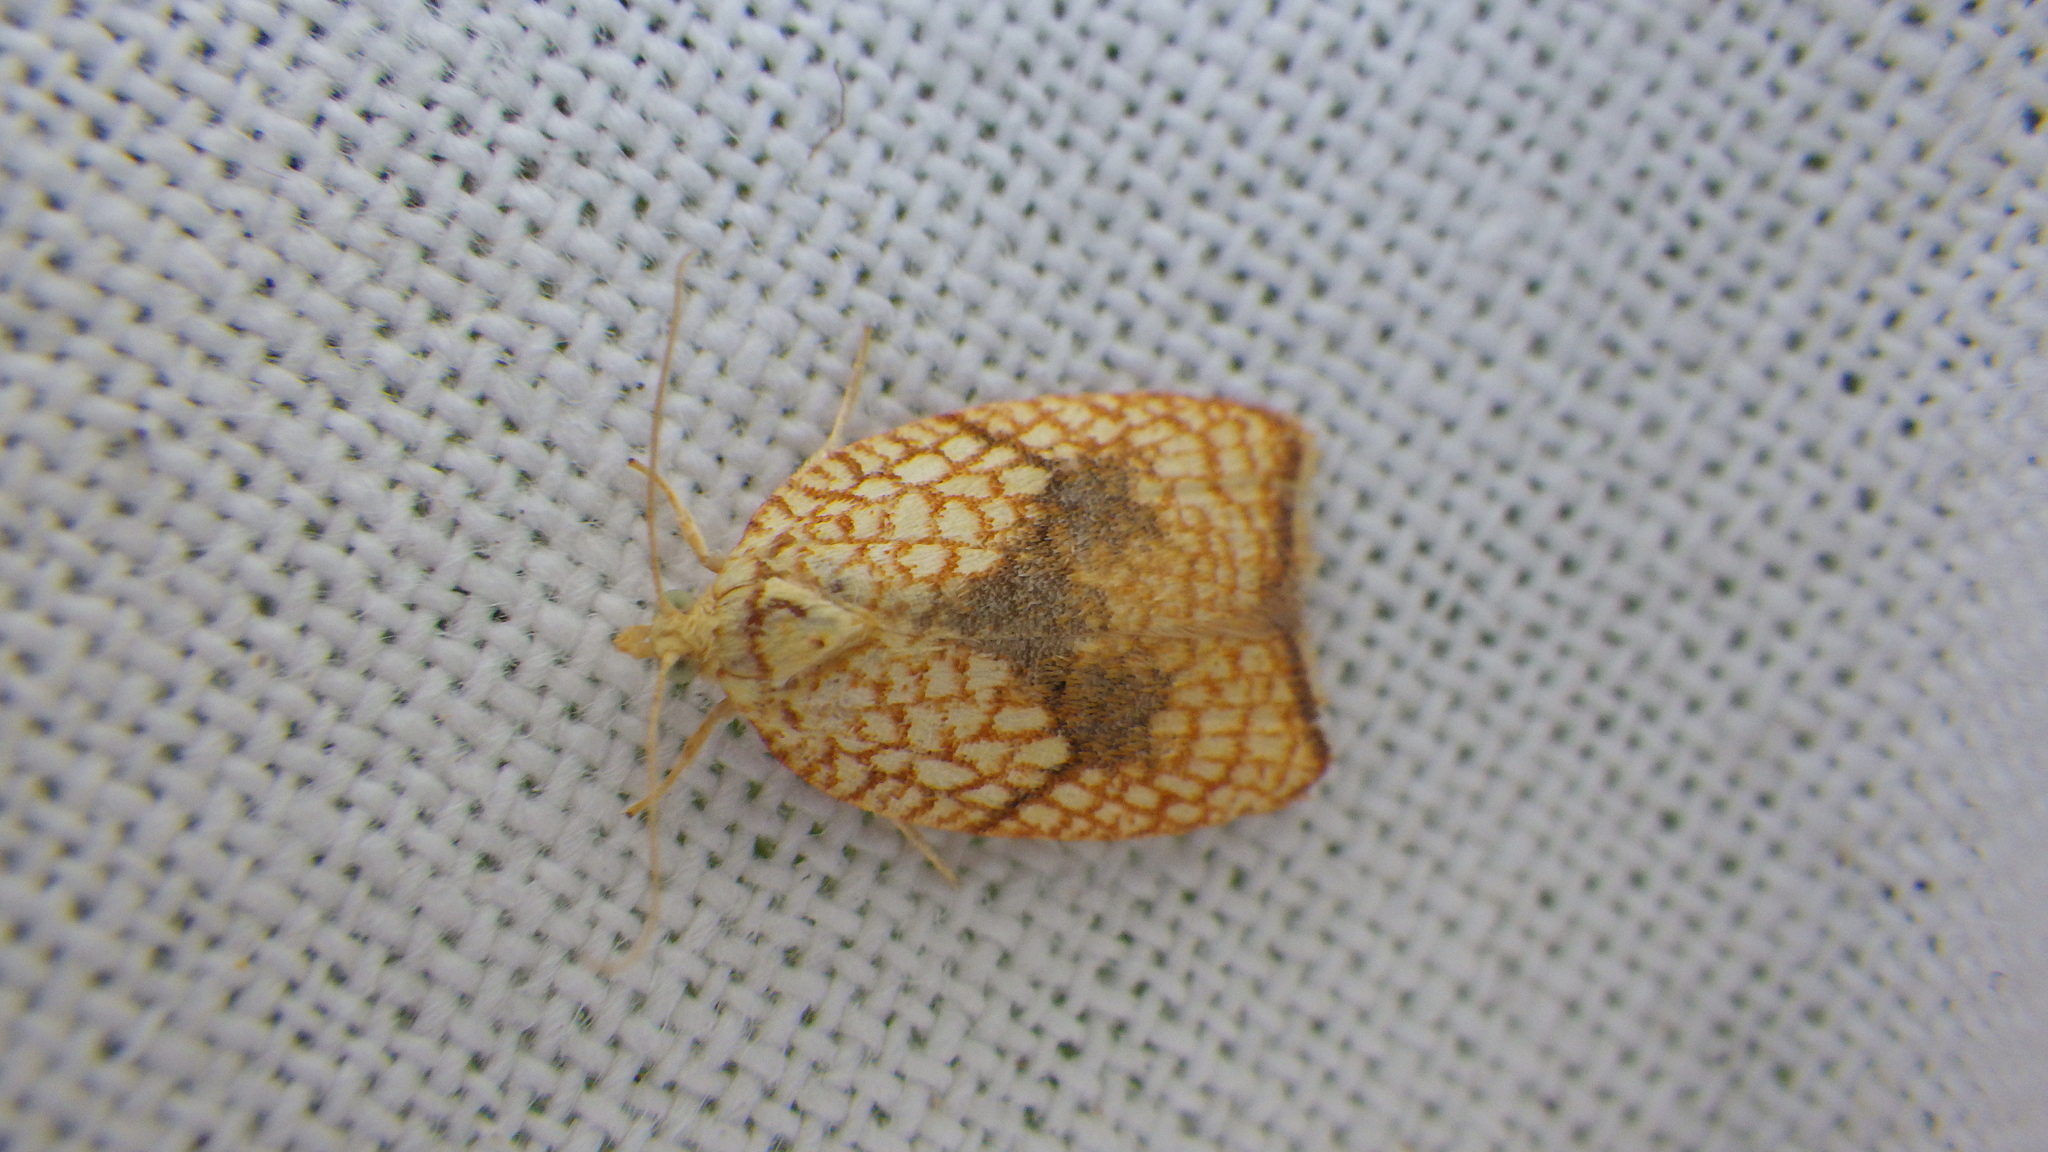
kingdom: Animalia
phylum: Arthropoda
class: Insecta
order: Lepidoptera
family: Tortricidae
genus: Acleris
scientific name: Acleris forsskaleana
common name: Maple button
